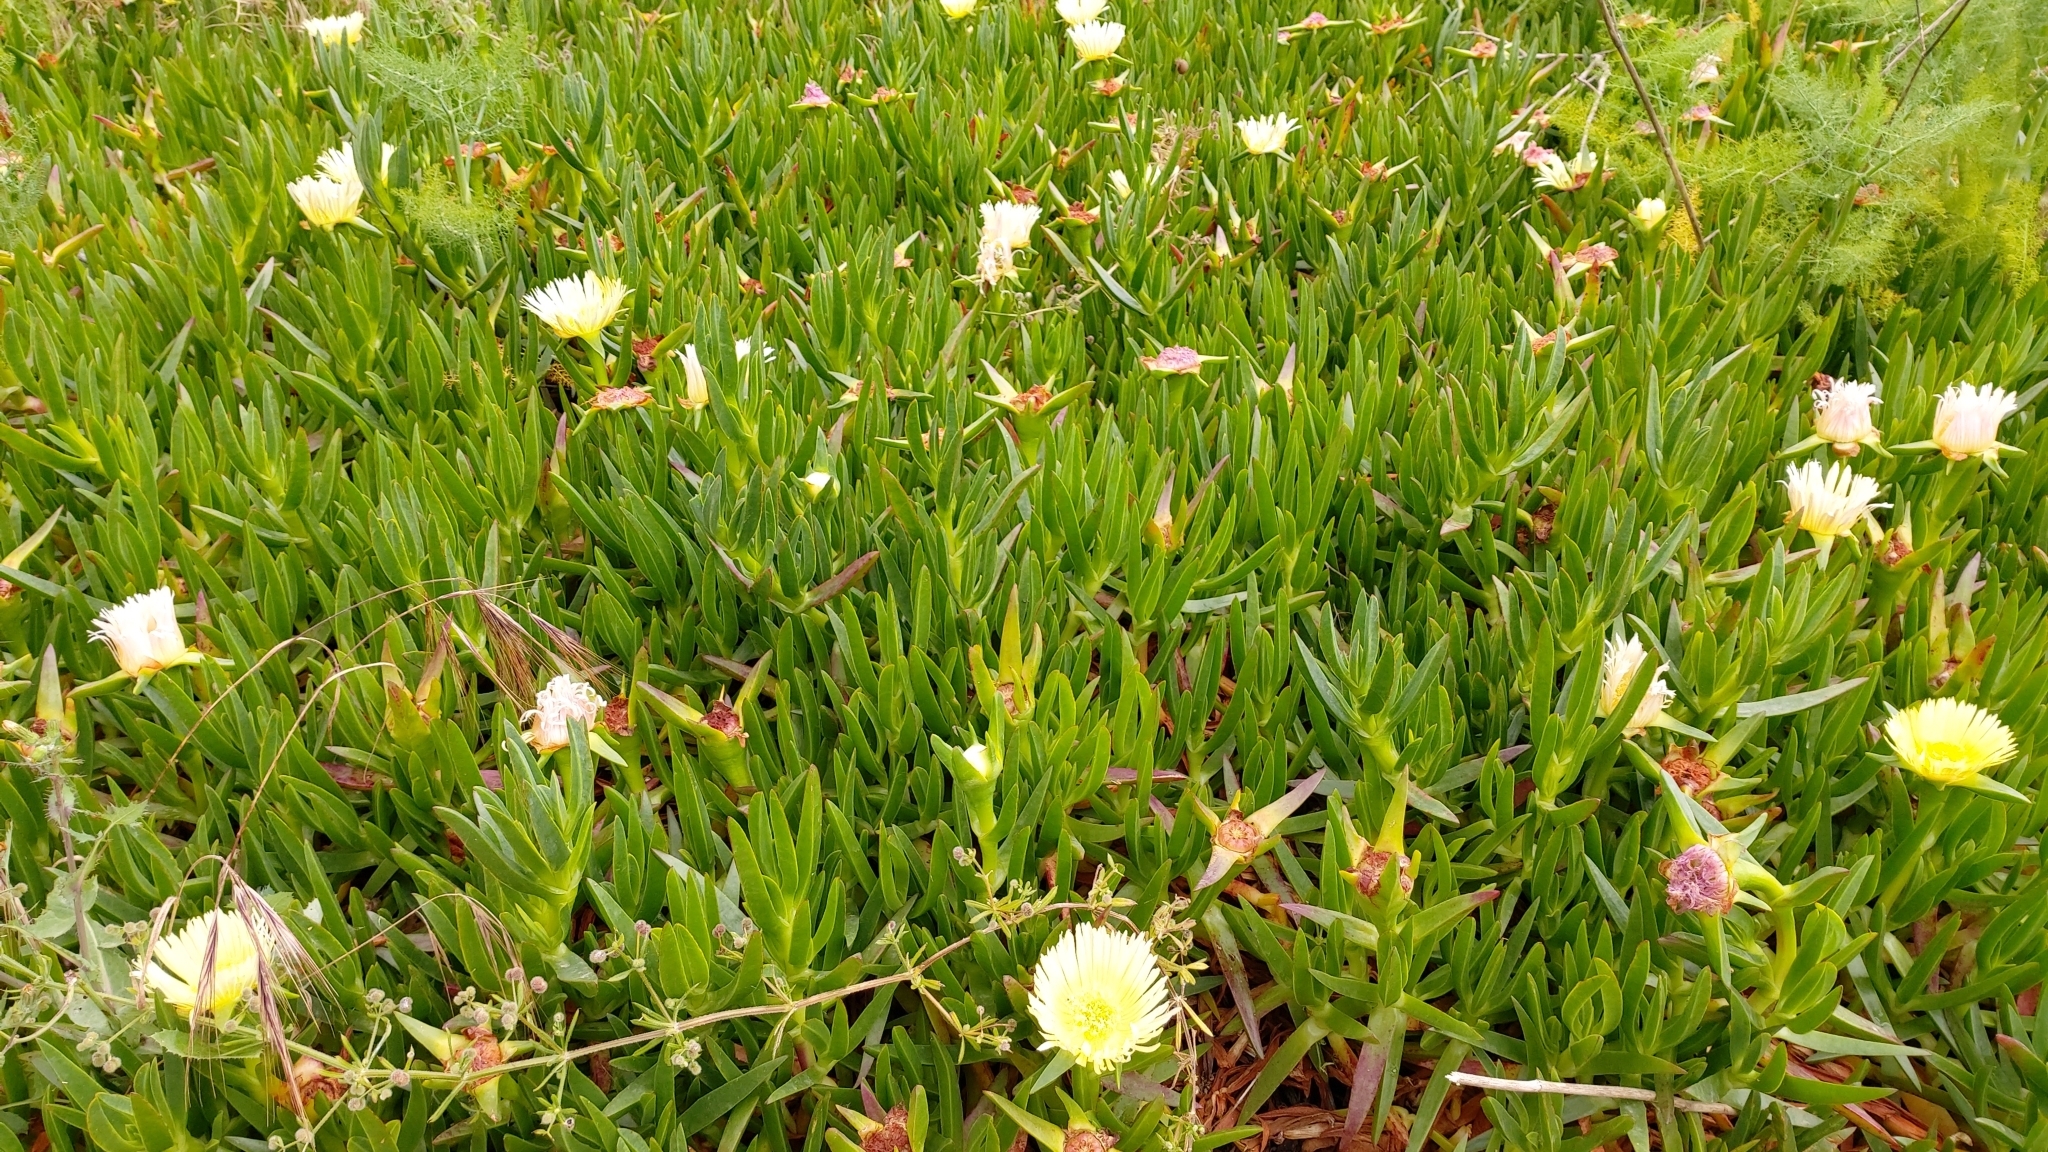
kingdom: Plantae
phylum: Tracheophyta
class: Magnoliopsida
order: Caryophyllales
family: Aizoaceae
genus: Carpobrotus
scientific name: Carpobrotus edulis
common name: Hottentot-fig
